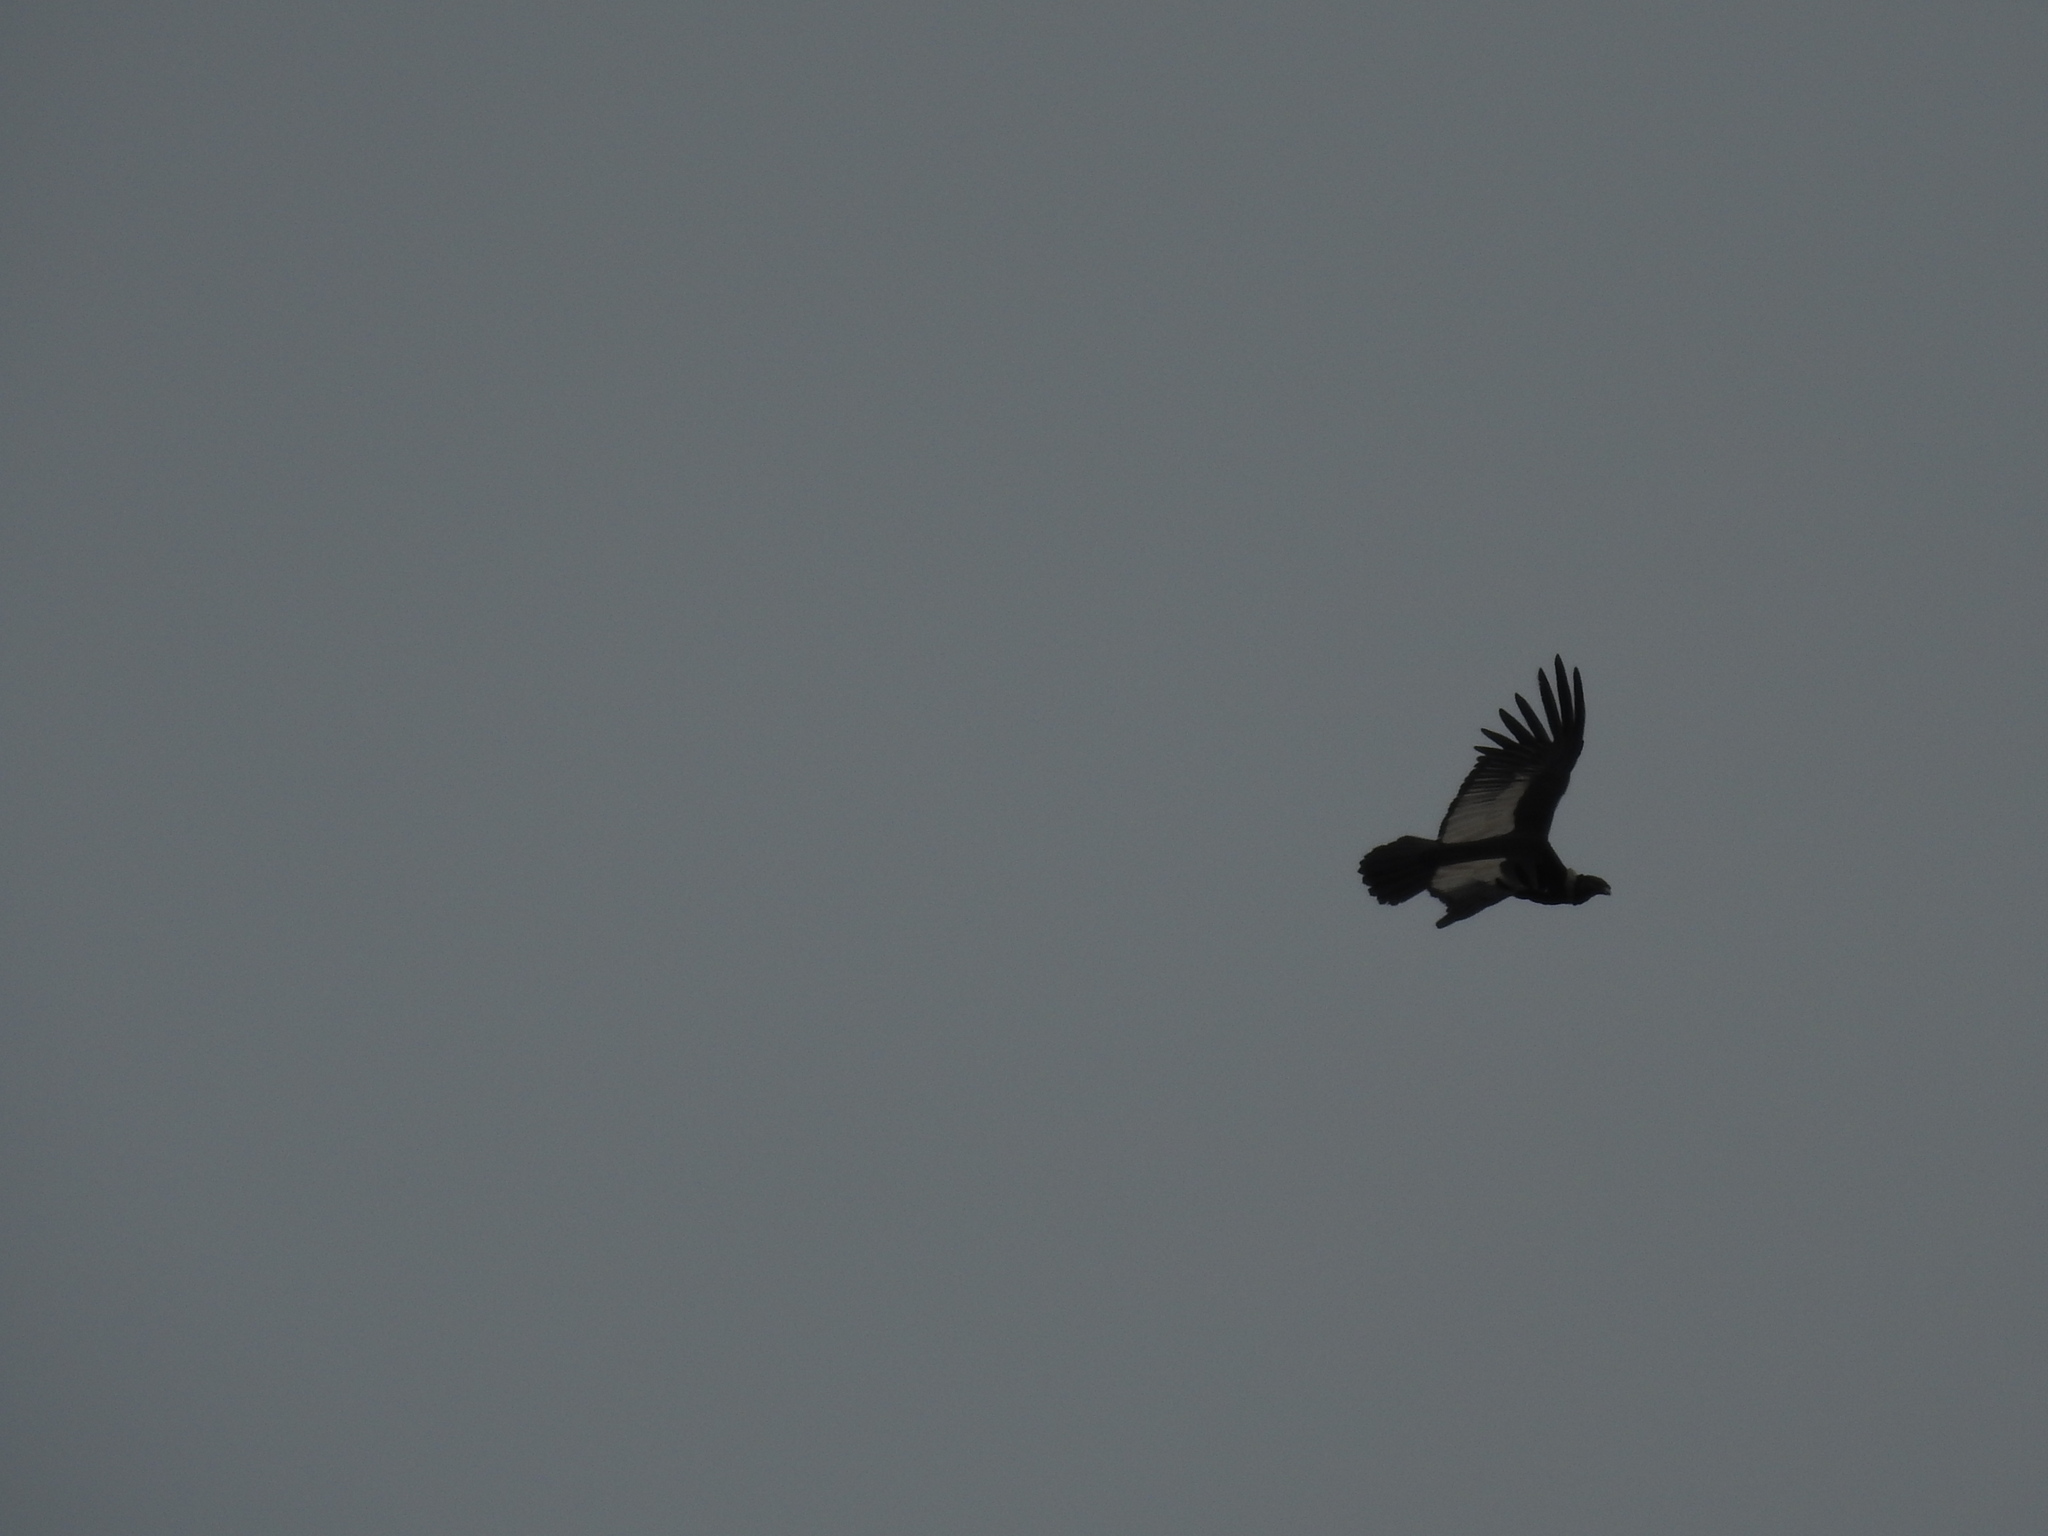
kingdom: Animalia
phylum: Chordata
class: Aves
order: Accipitriformes
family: Cathartidae
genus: Vultur
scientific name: Vultur gryphus
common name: Andean condor
